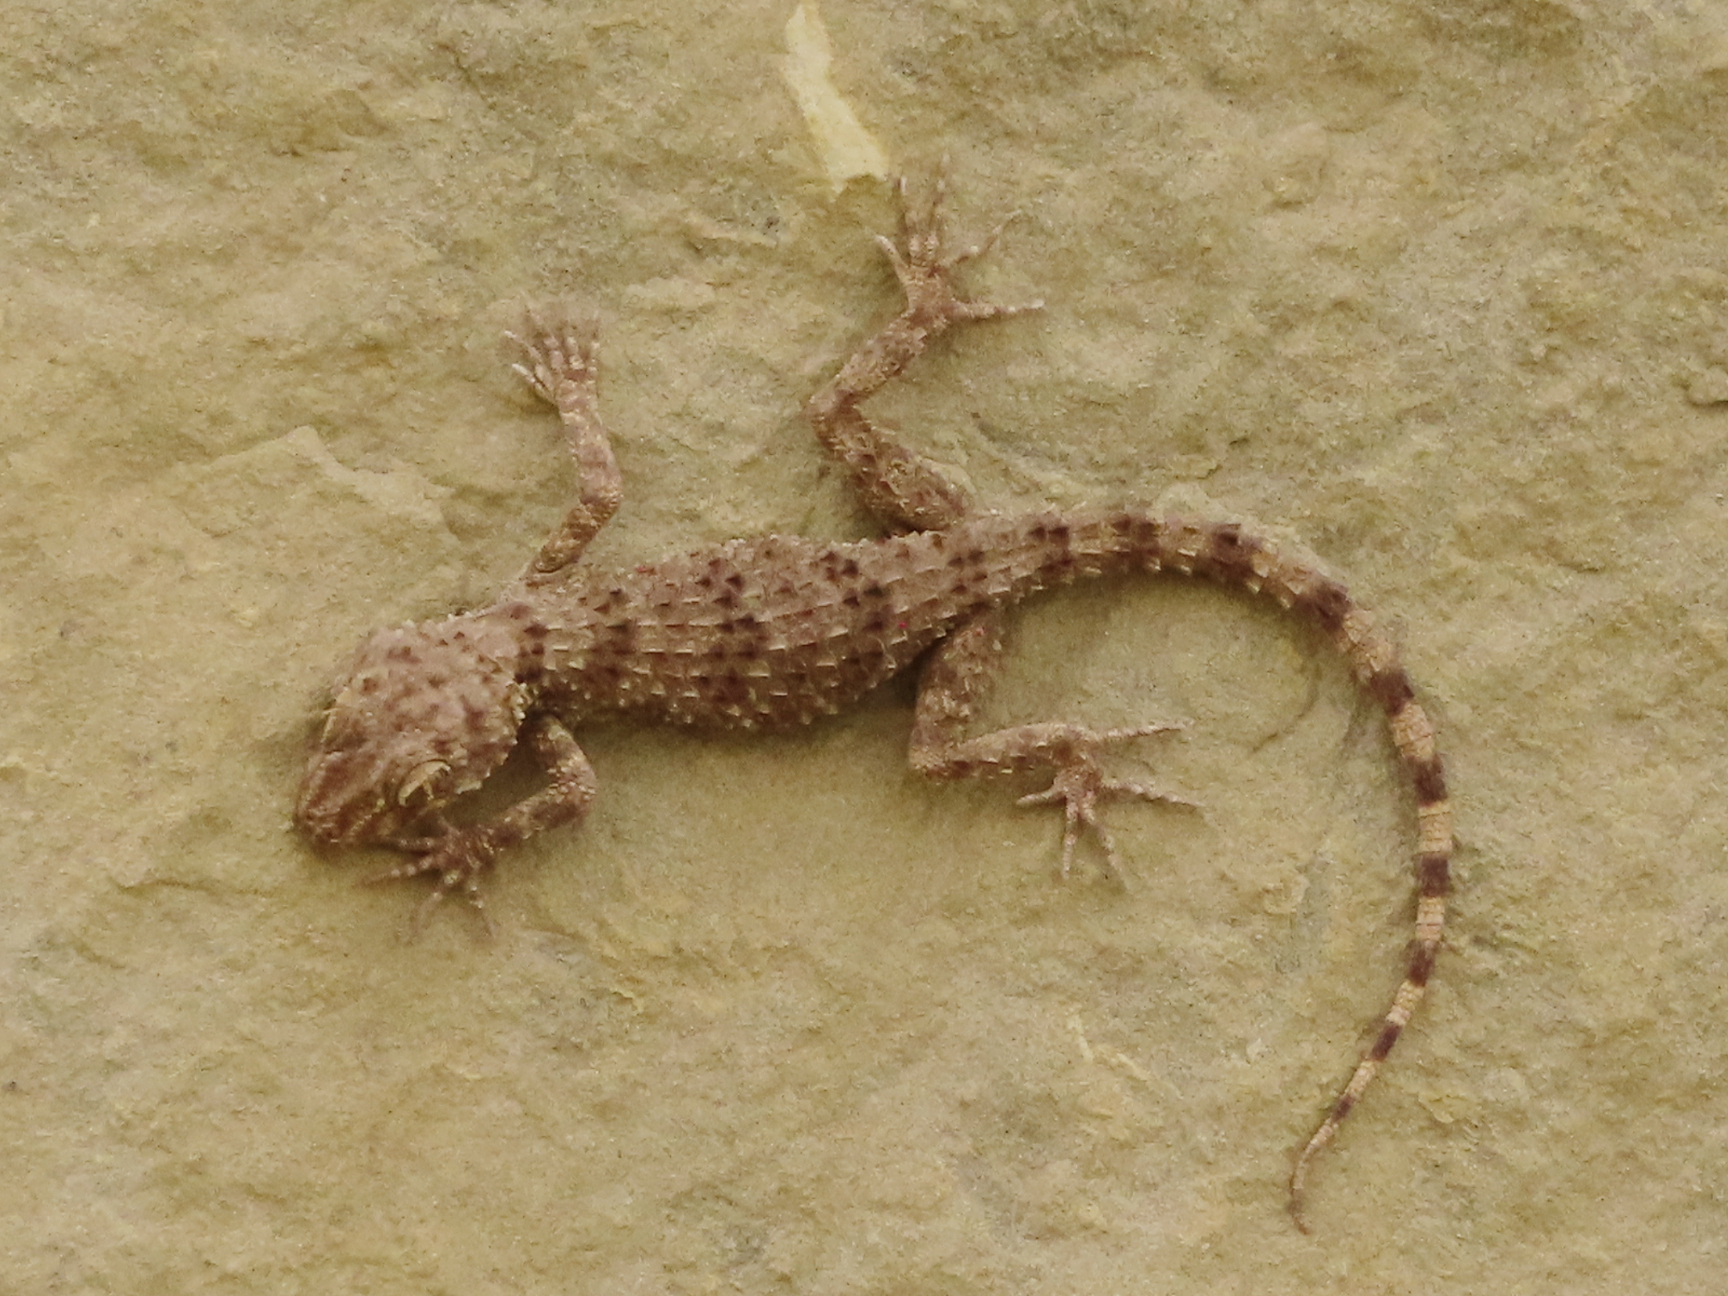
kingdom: Animalia
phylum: Chordata
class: Squamata
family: Gekkonidae
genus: Tenuidactylus
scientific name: Tenuidactylus caspius
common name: Caspian bent-toed gecko
